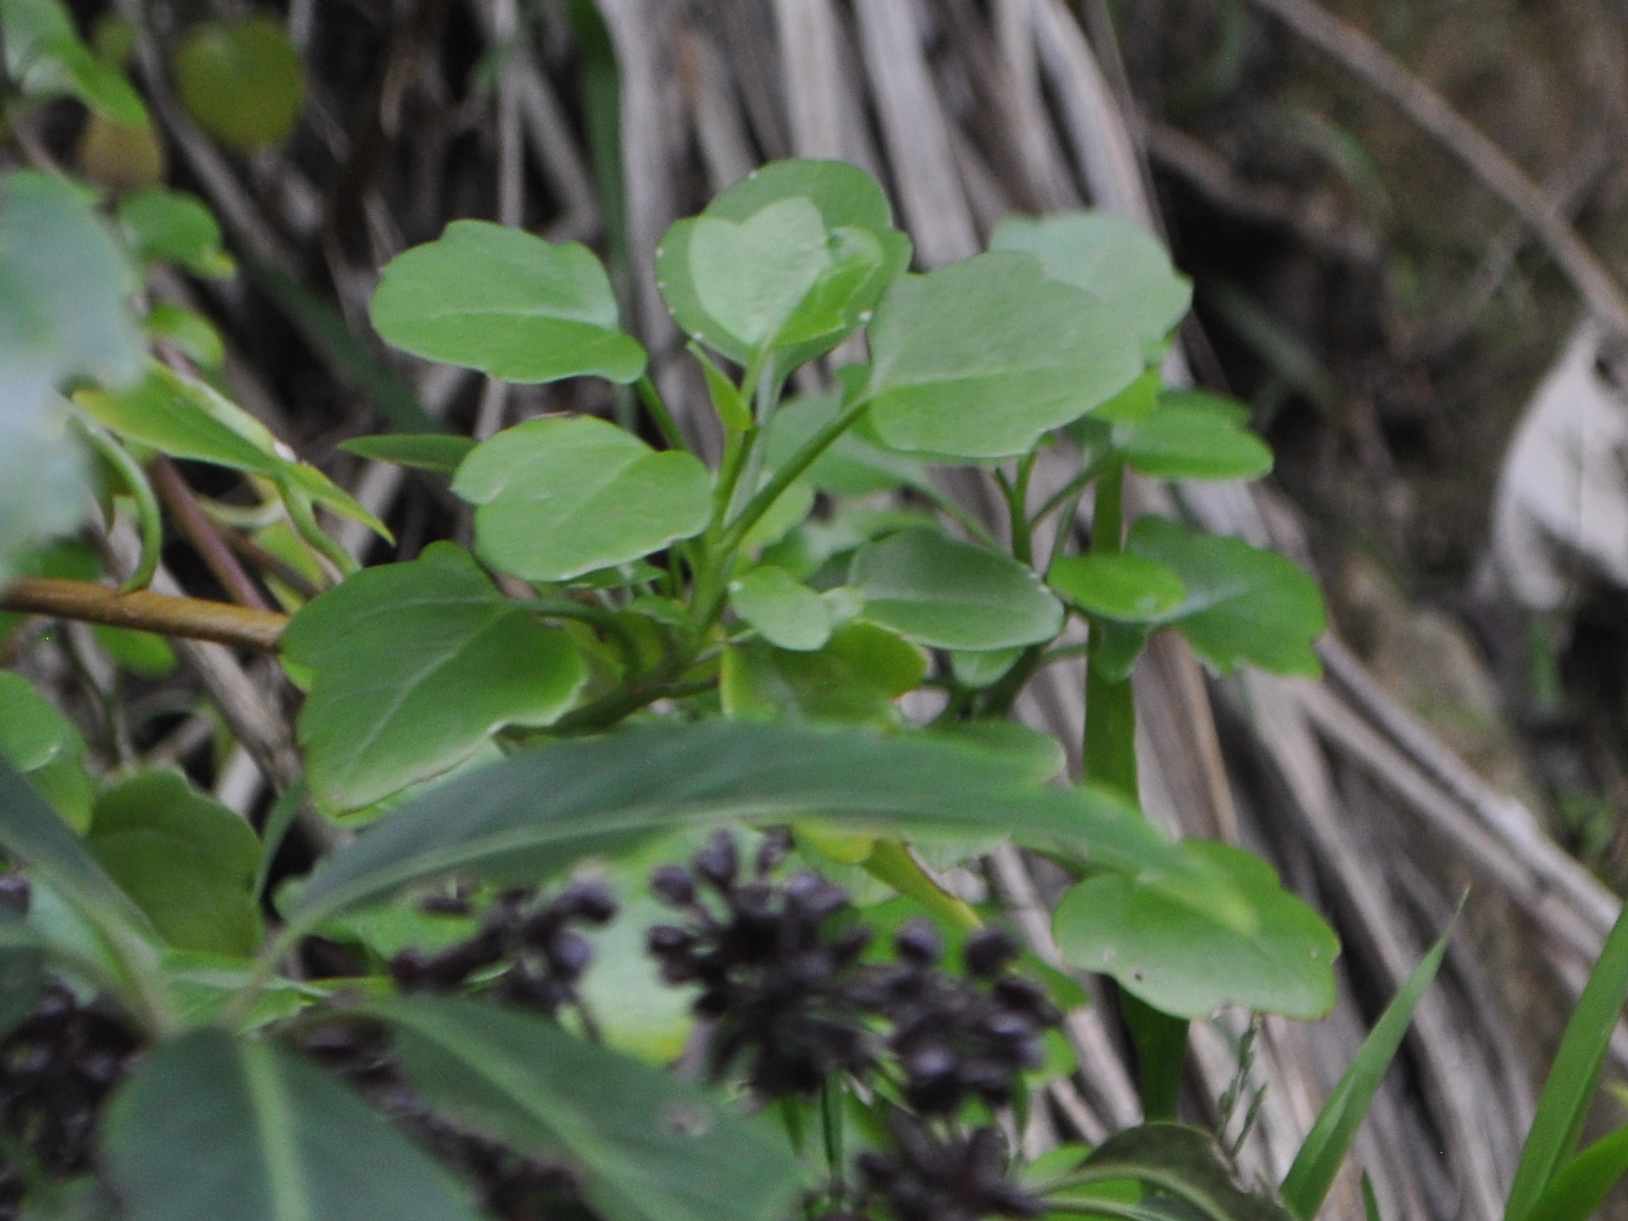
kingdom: Plantae
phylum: Tracheophyta
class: Magnoliopsida
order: Asterales
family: Asteraceae
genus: Senecio
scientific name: Senecio angulatus
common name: Climbing groundsel
